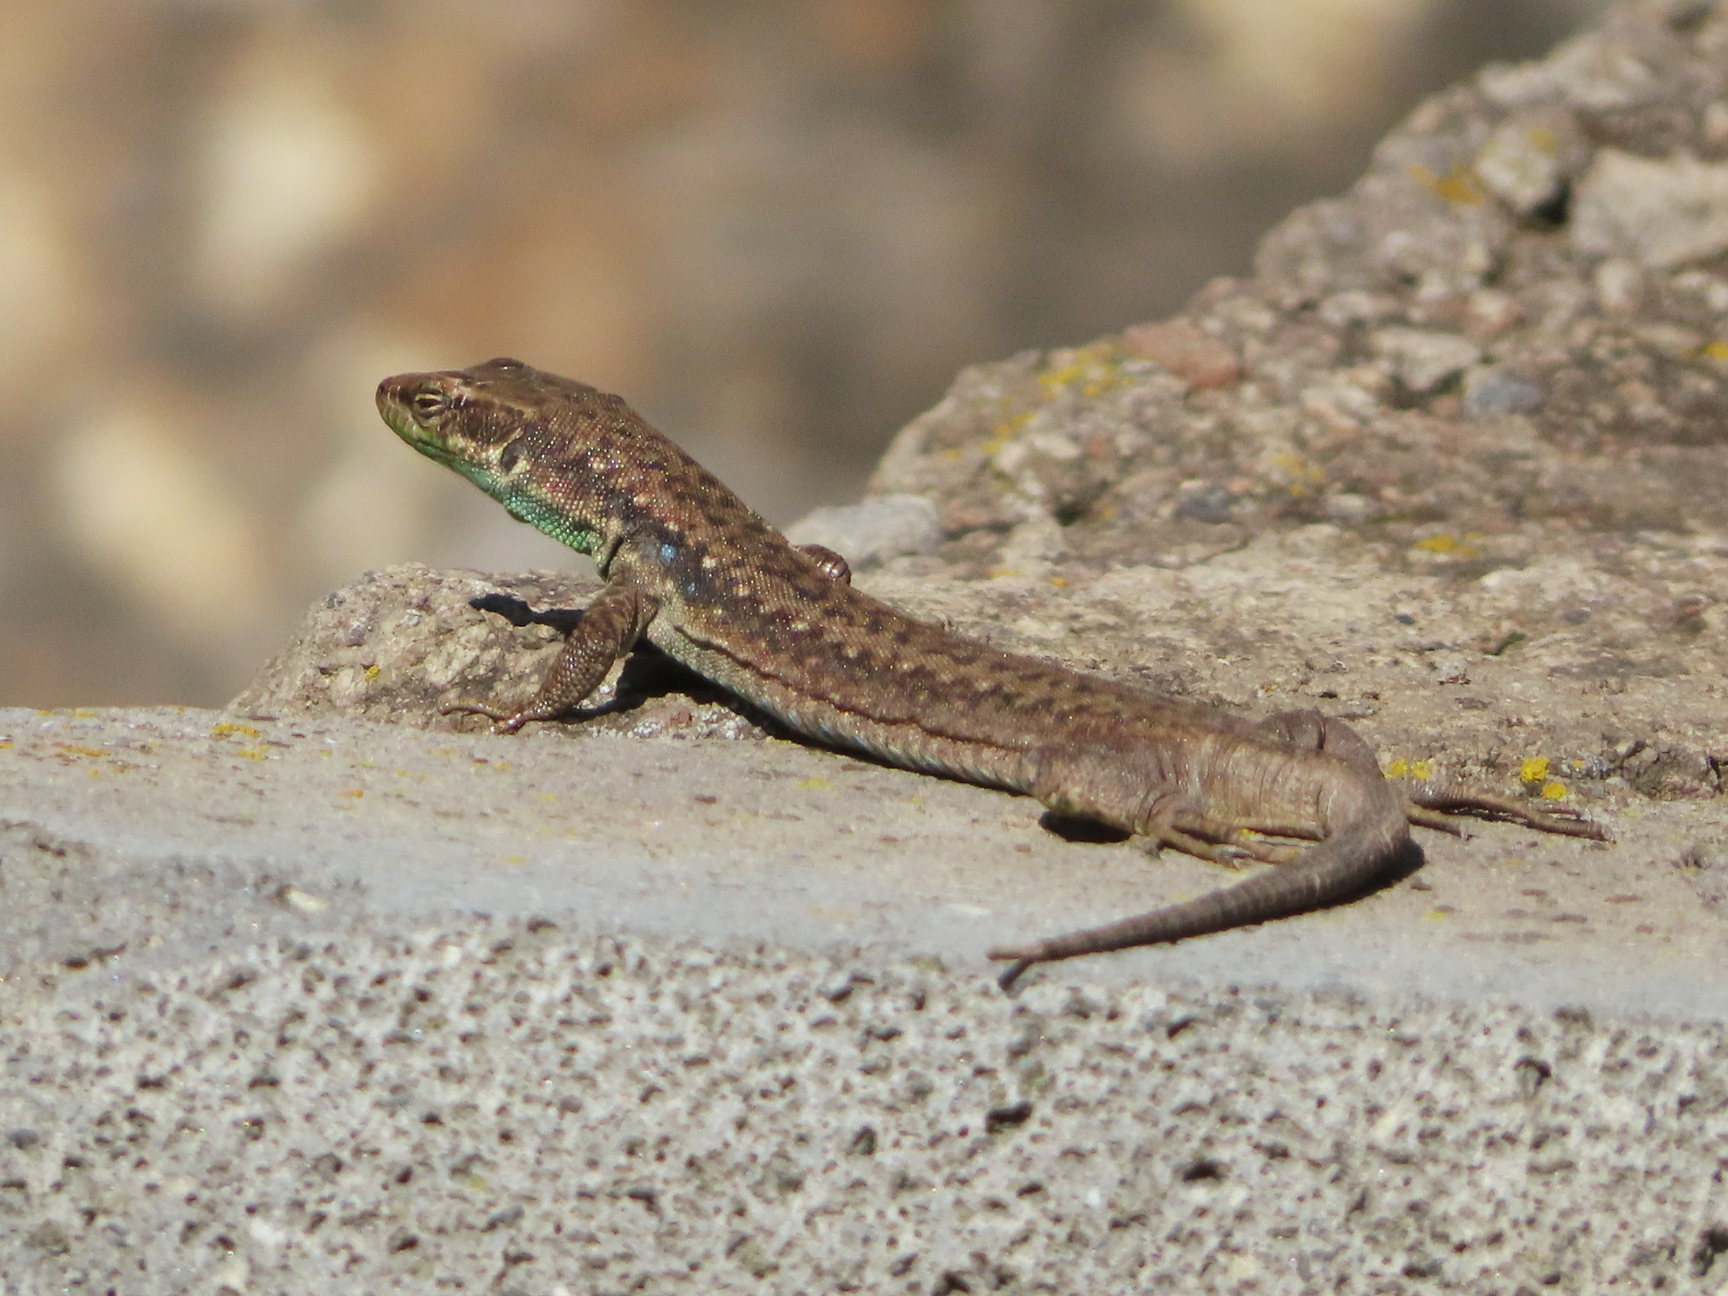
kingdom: Animalia
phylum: Chordata
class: Squamata
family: Lacertidae
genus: Darevskia
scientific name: Darevskia raddei
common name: Radde's lizard
